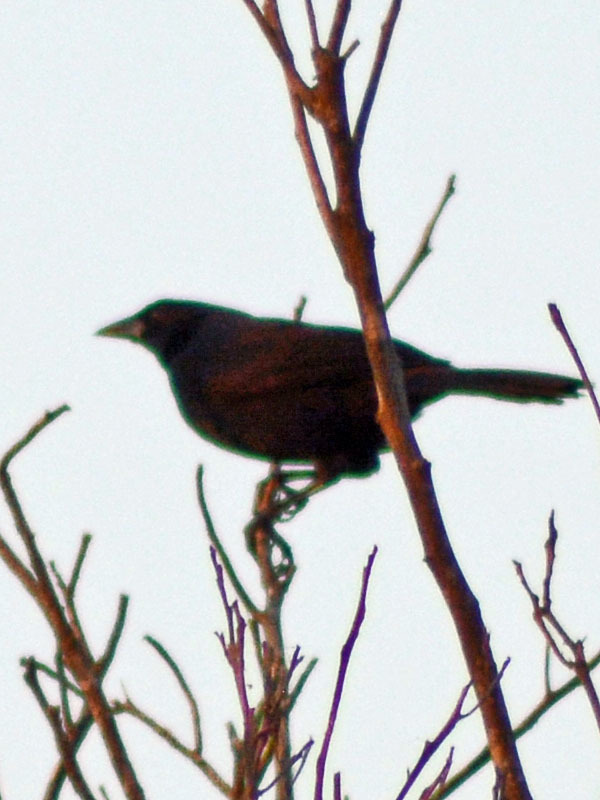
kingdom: Animalia
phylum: Chordata
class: Aves
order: Passeriformes
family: Icteridae
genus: Dives
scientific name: Dives dives
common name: Melodious blackbird
